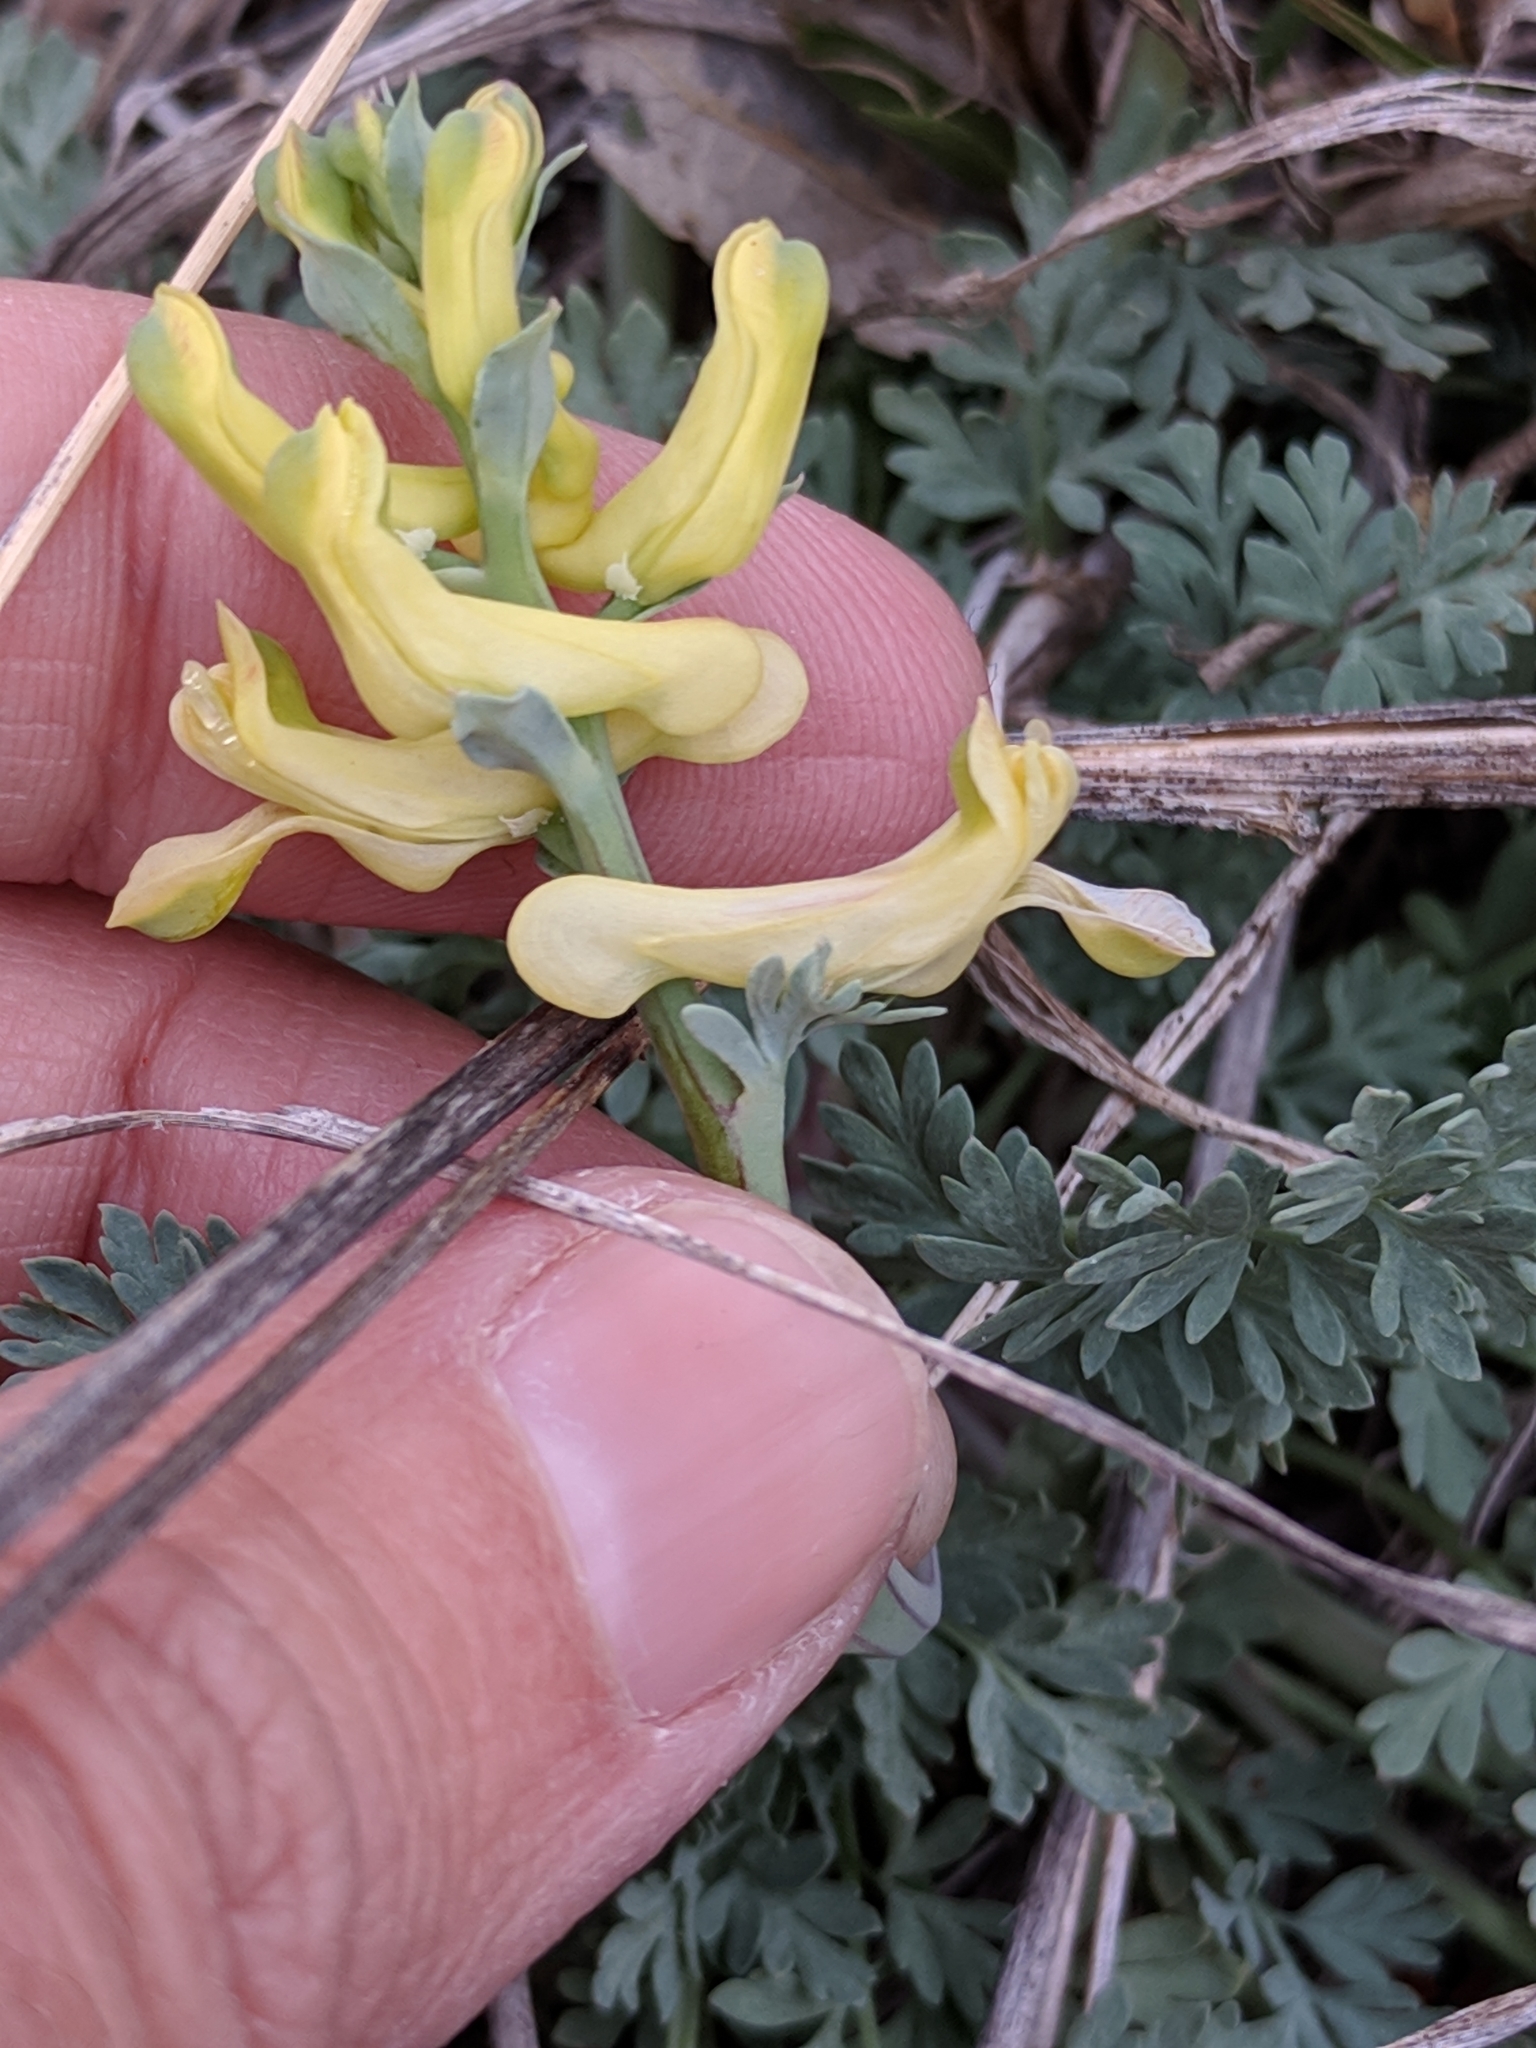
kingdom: Plantae
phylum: Tracheophyta
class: Magnoliopsida
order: Ranunculales
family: Papaveraceae
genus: Corydalis
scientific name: Corydalis aurea
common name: Golden corydalis
